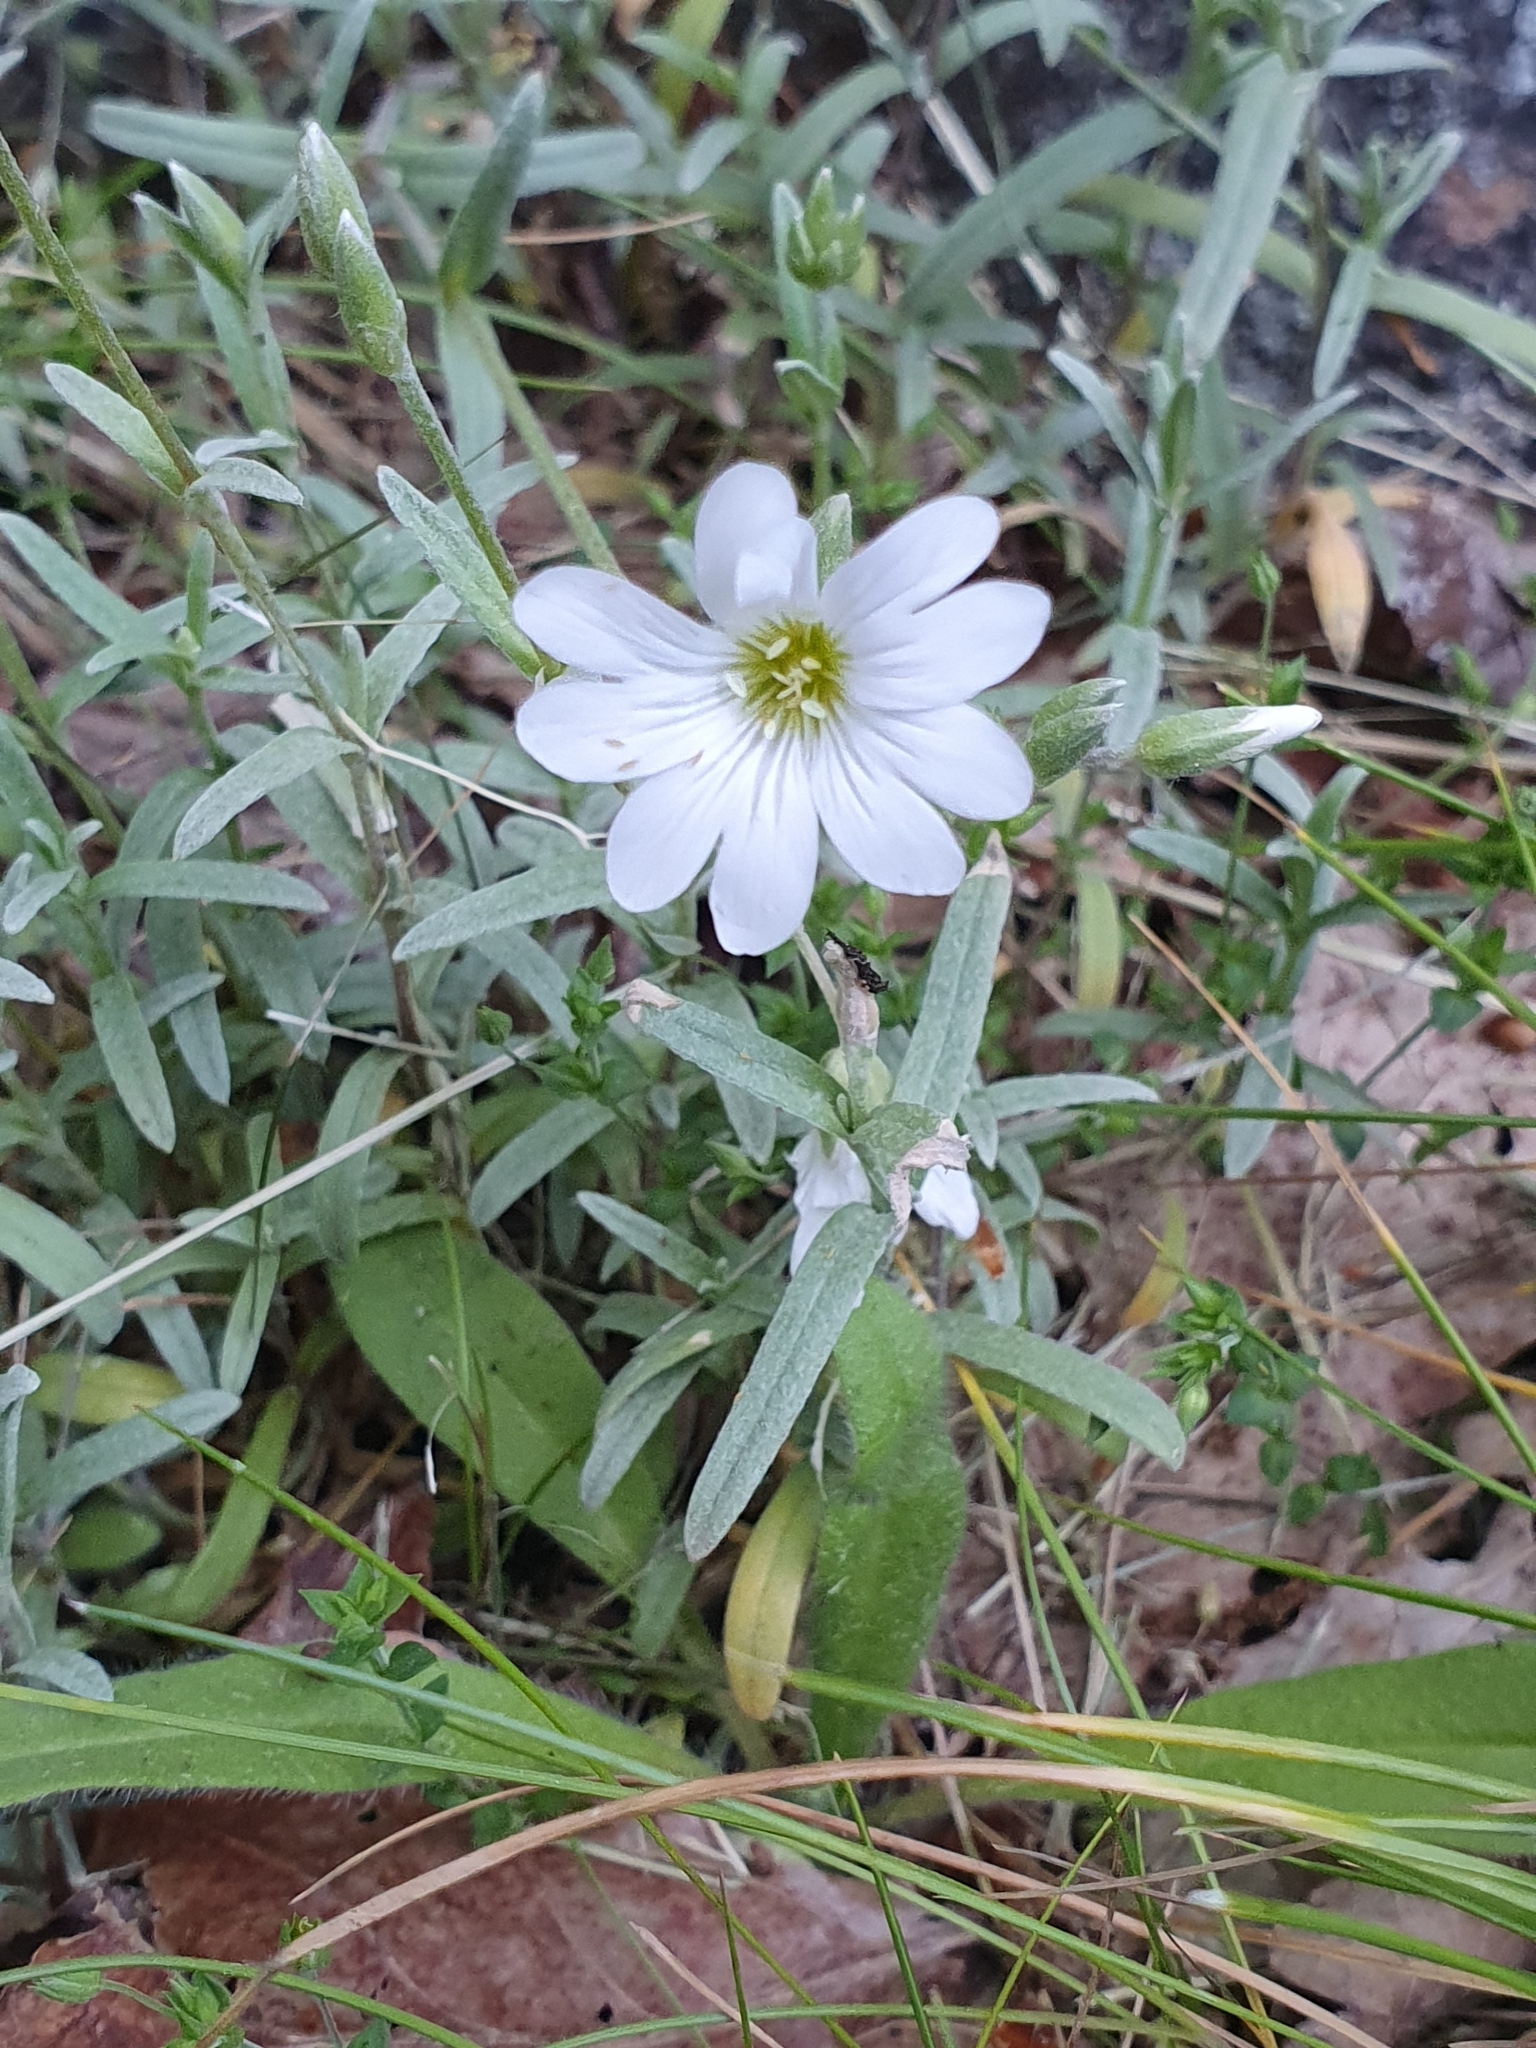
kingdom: Plantae
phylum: Tracheophyta
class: Magnoliopsida
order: Caryophyllales
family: Caryophyllaceae
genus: Cerastium
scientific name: Cerastium tomentosum
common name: Snow-in-summer
